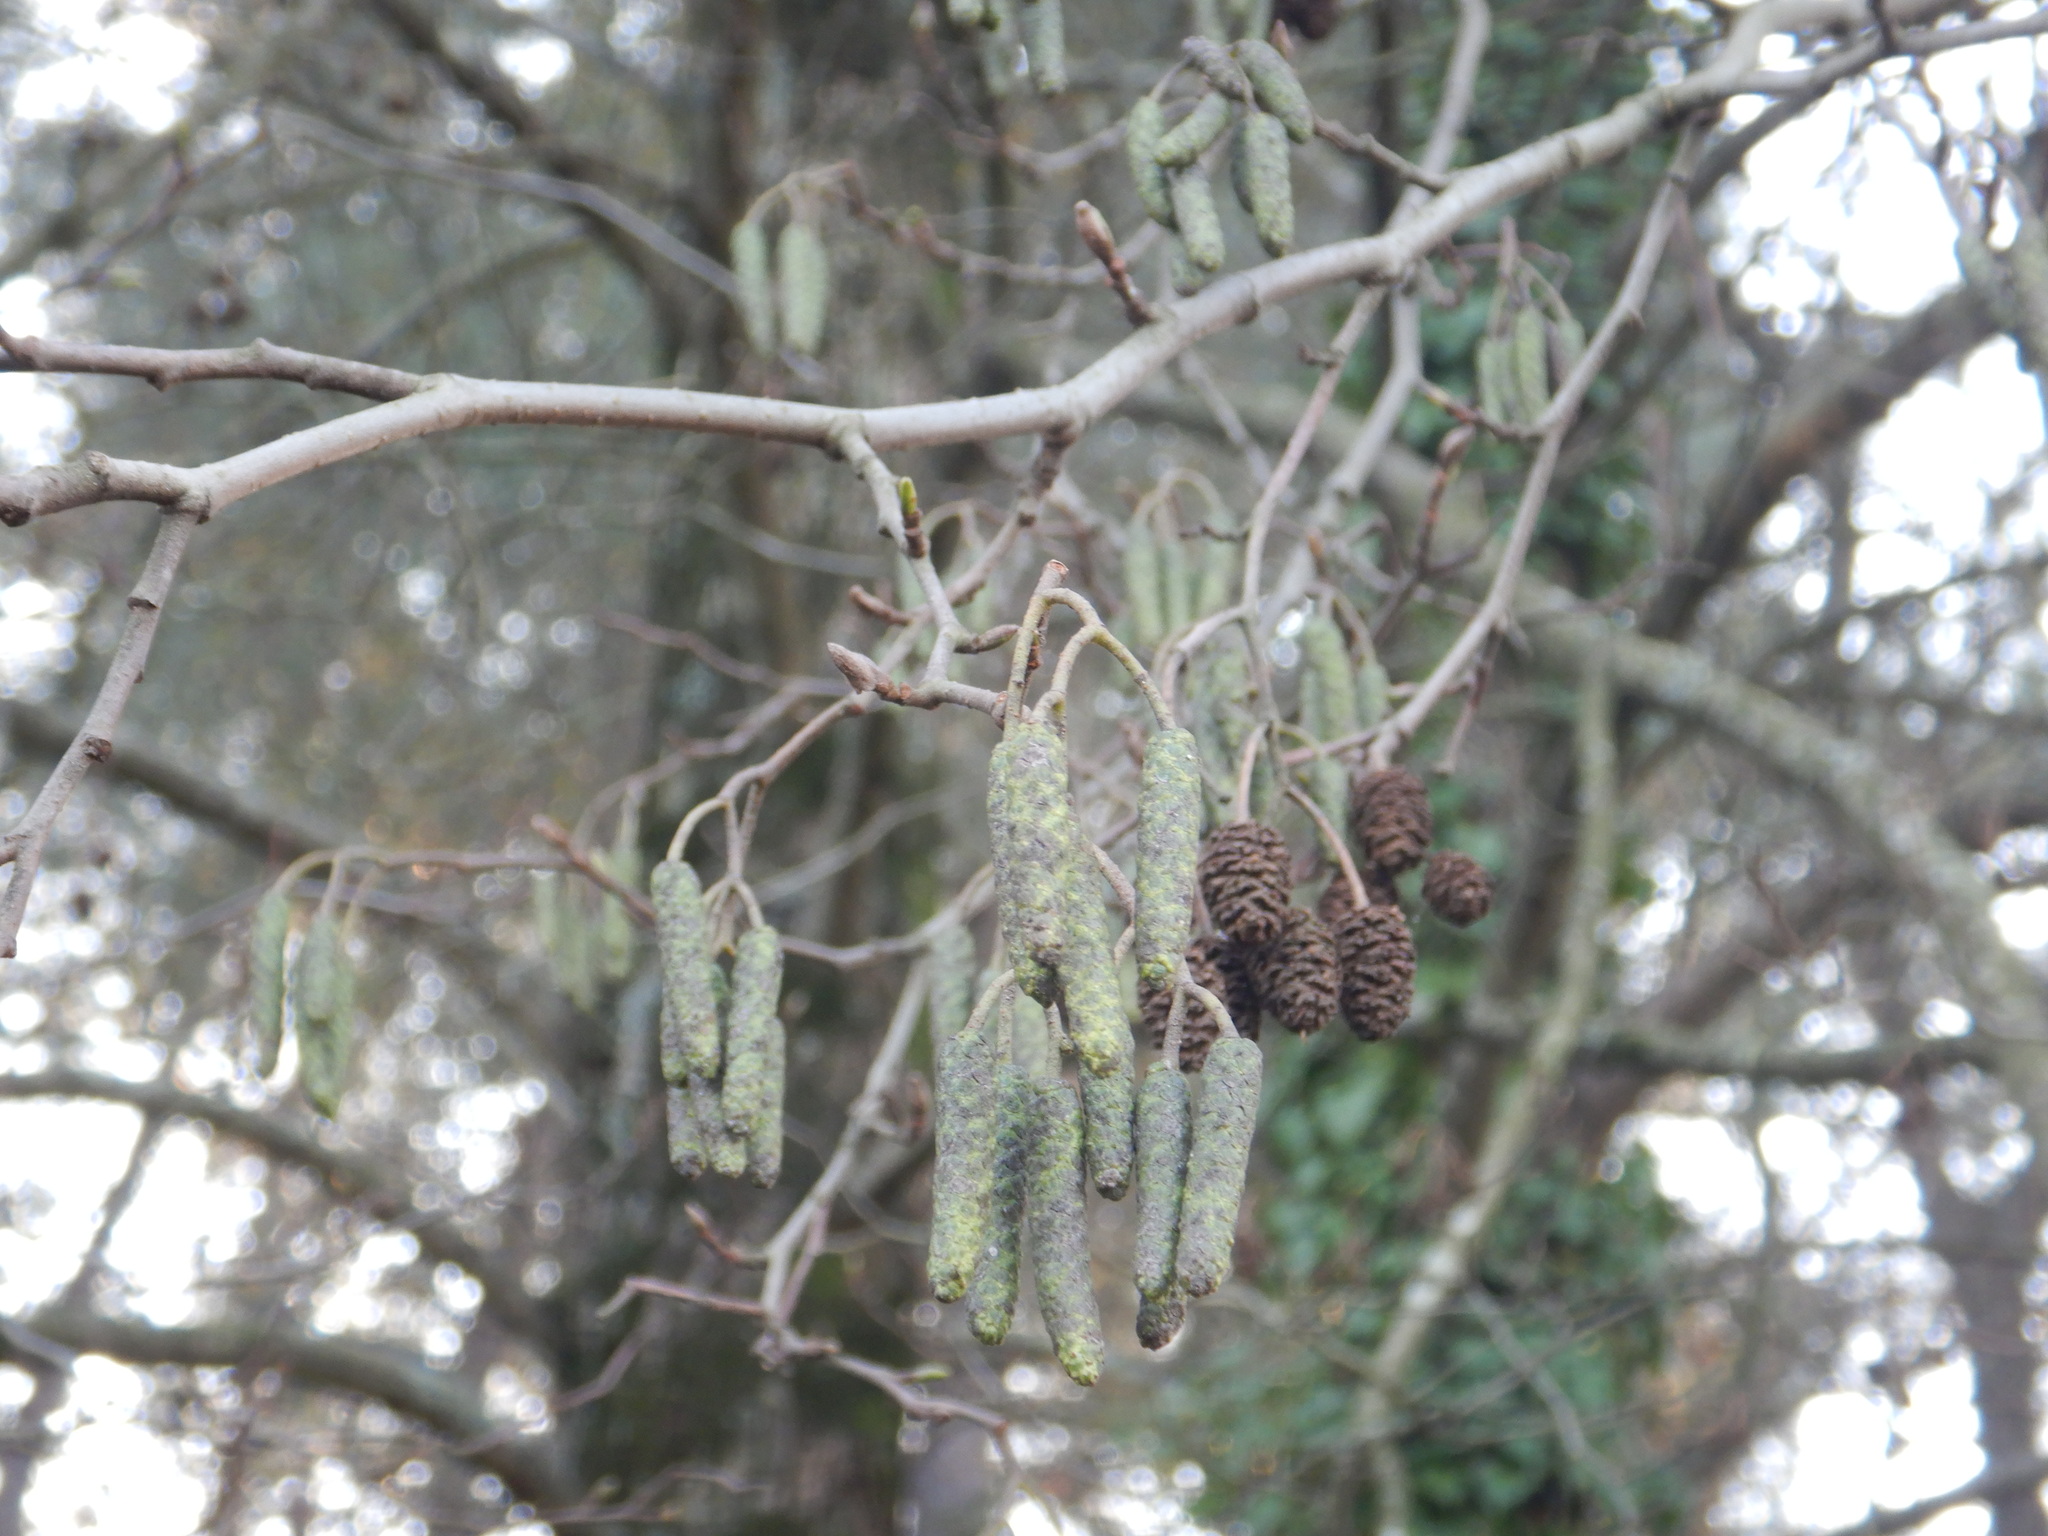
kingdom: Plantae
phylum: Tracheophyta
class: Magnoliopsida
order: Fagales
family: Betulaceae
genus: Alnus
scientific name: Alnus lusitanica
